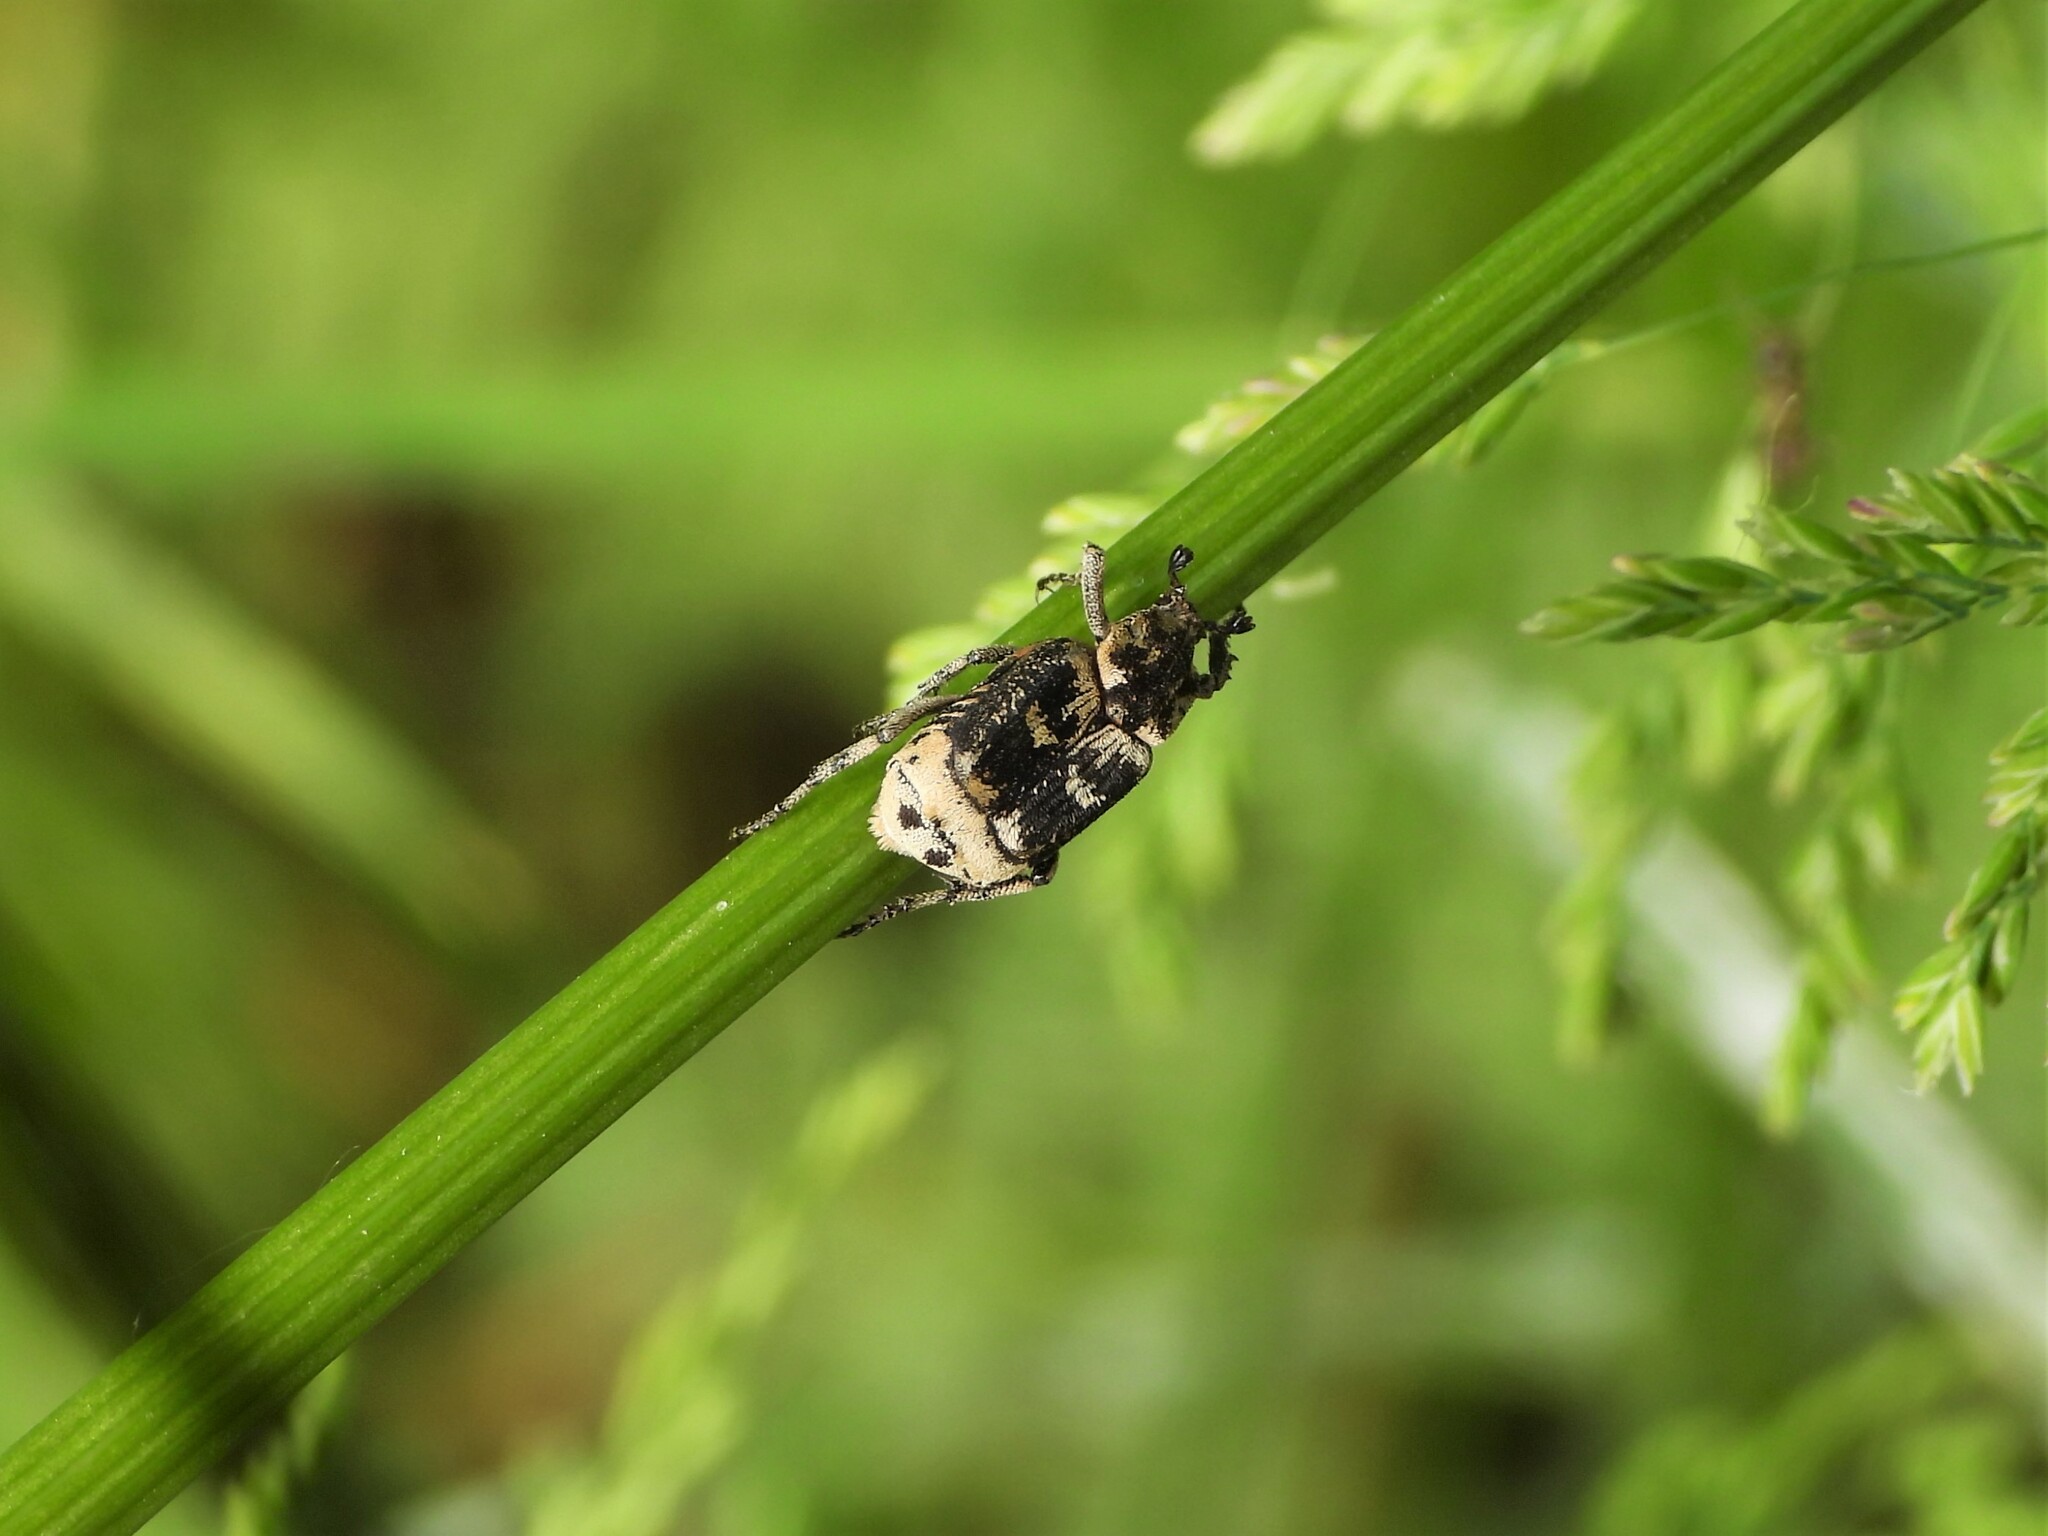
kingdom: Animalia
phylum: Arthropoda
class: Insecta
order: Coleoptera
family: Scarabaeidae
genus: Valgus
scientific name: Valgus hemipterus
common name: Bug flower chafer
